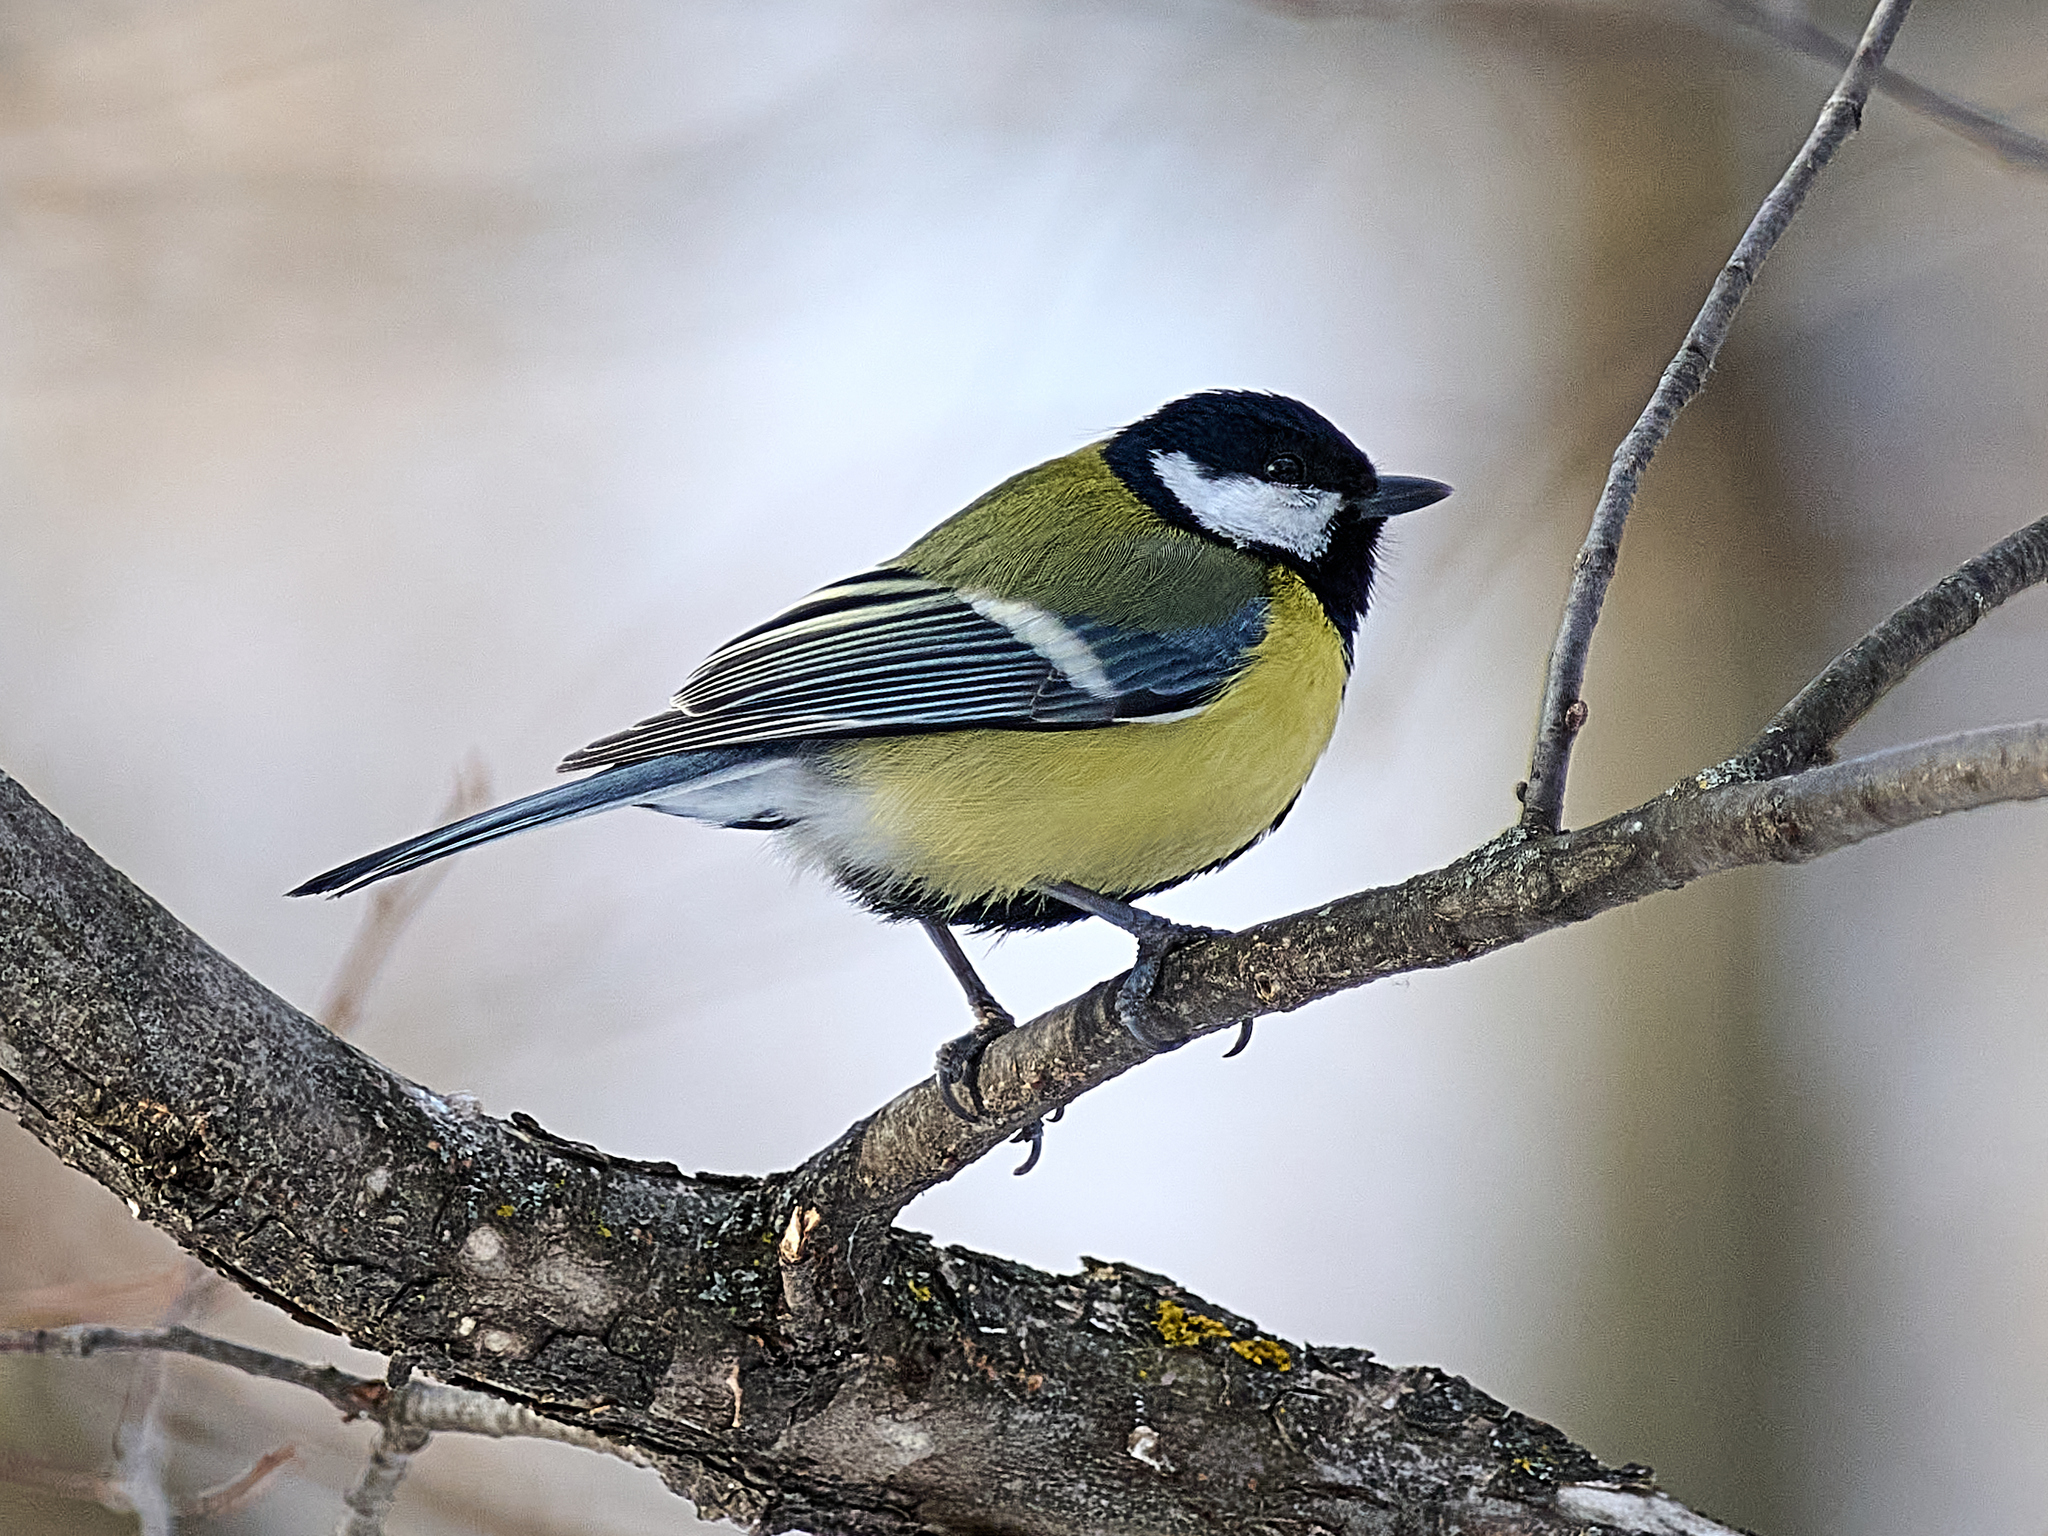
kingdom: Animalia
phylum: Chordata
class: Aves
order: Passeriformes
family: Paridae
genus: Parus
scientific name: Parus major
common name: Great tit
